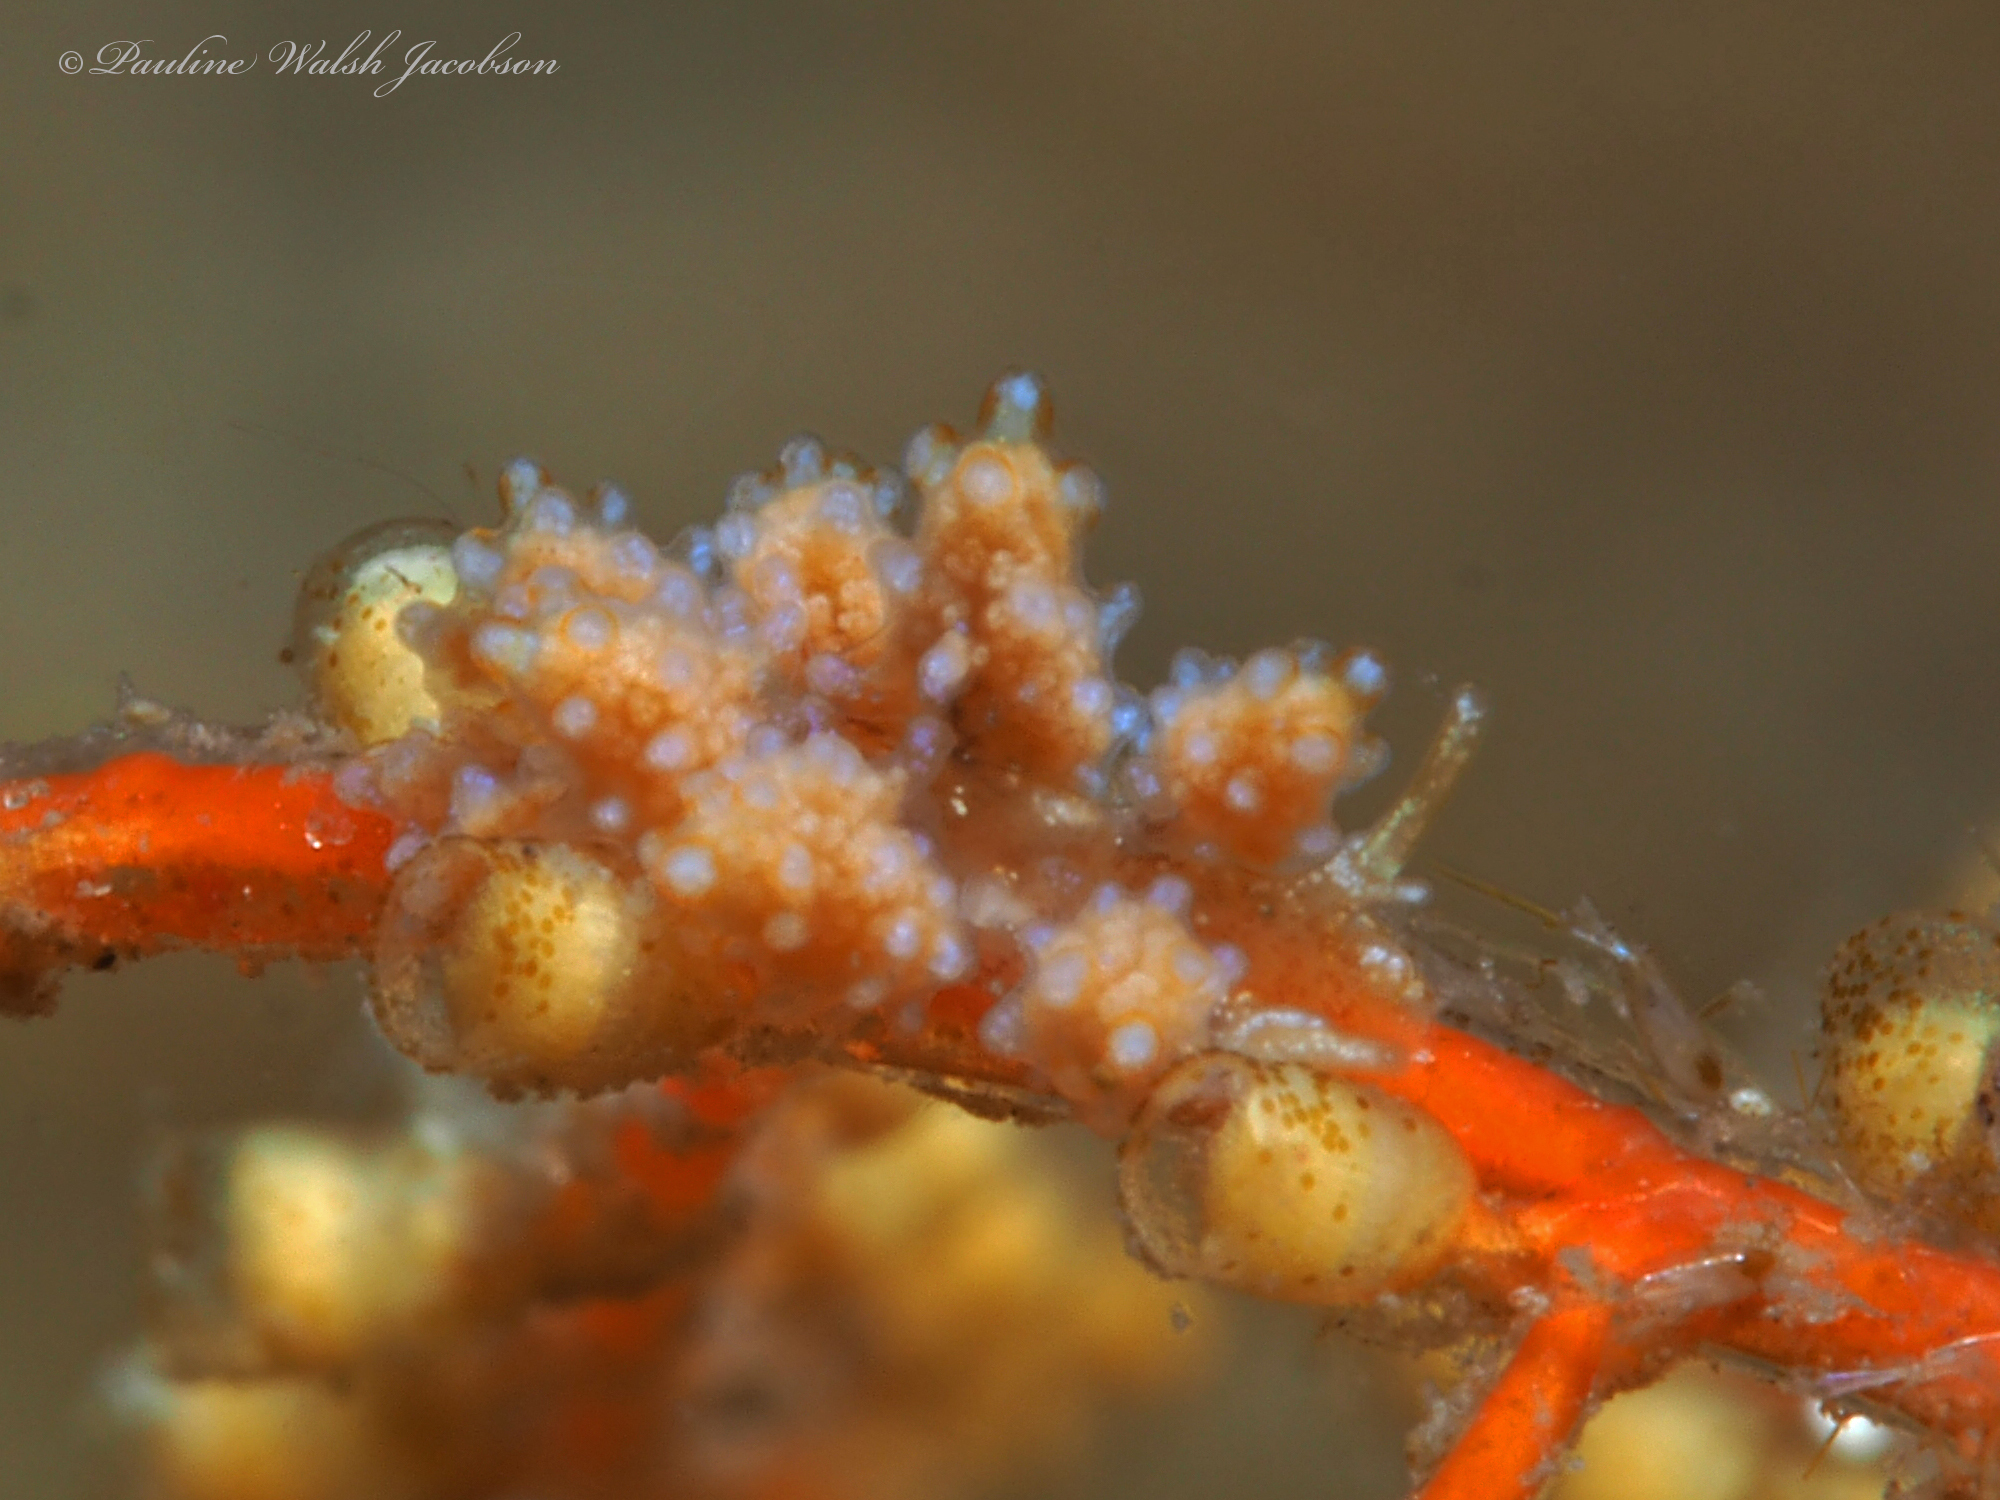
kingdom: Animalia
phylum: Mollusca
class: Gastropoda
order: Nudibranchia
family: Dotidae
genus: Doto
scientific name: Doto torrelavega
